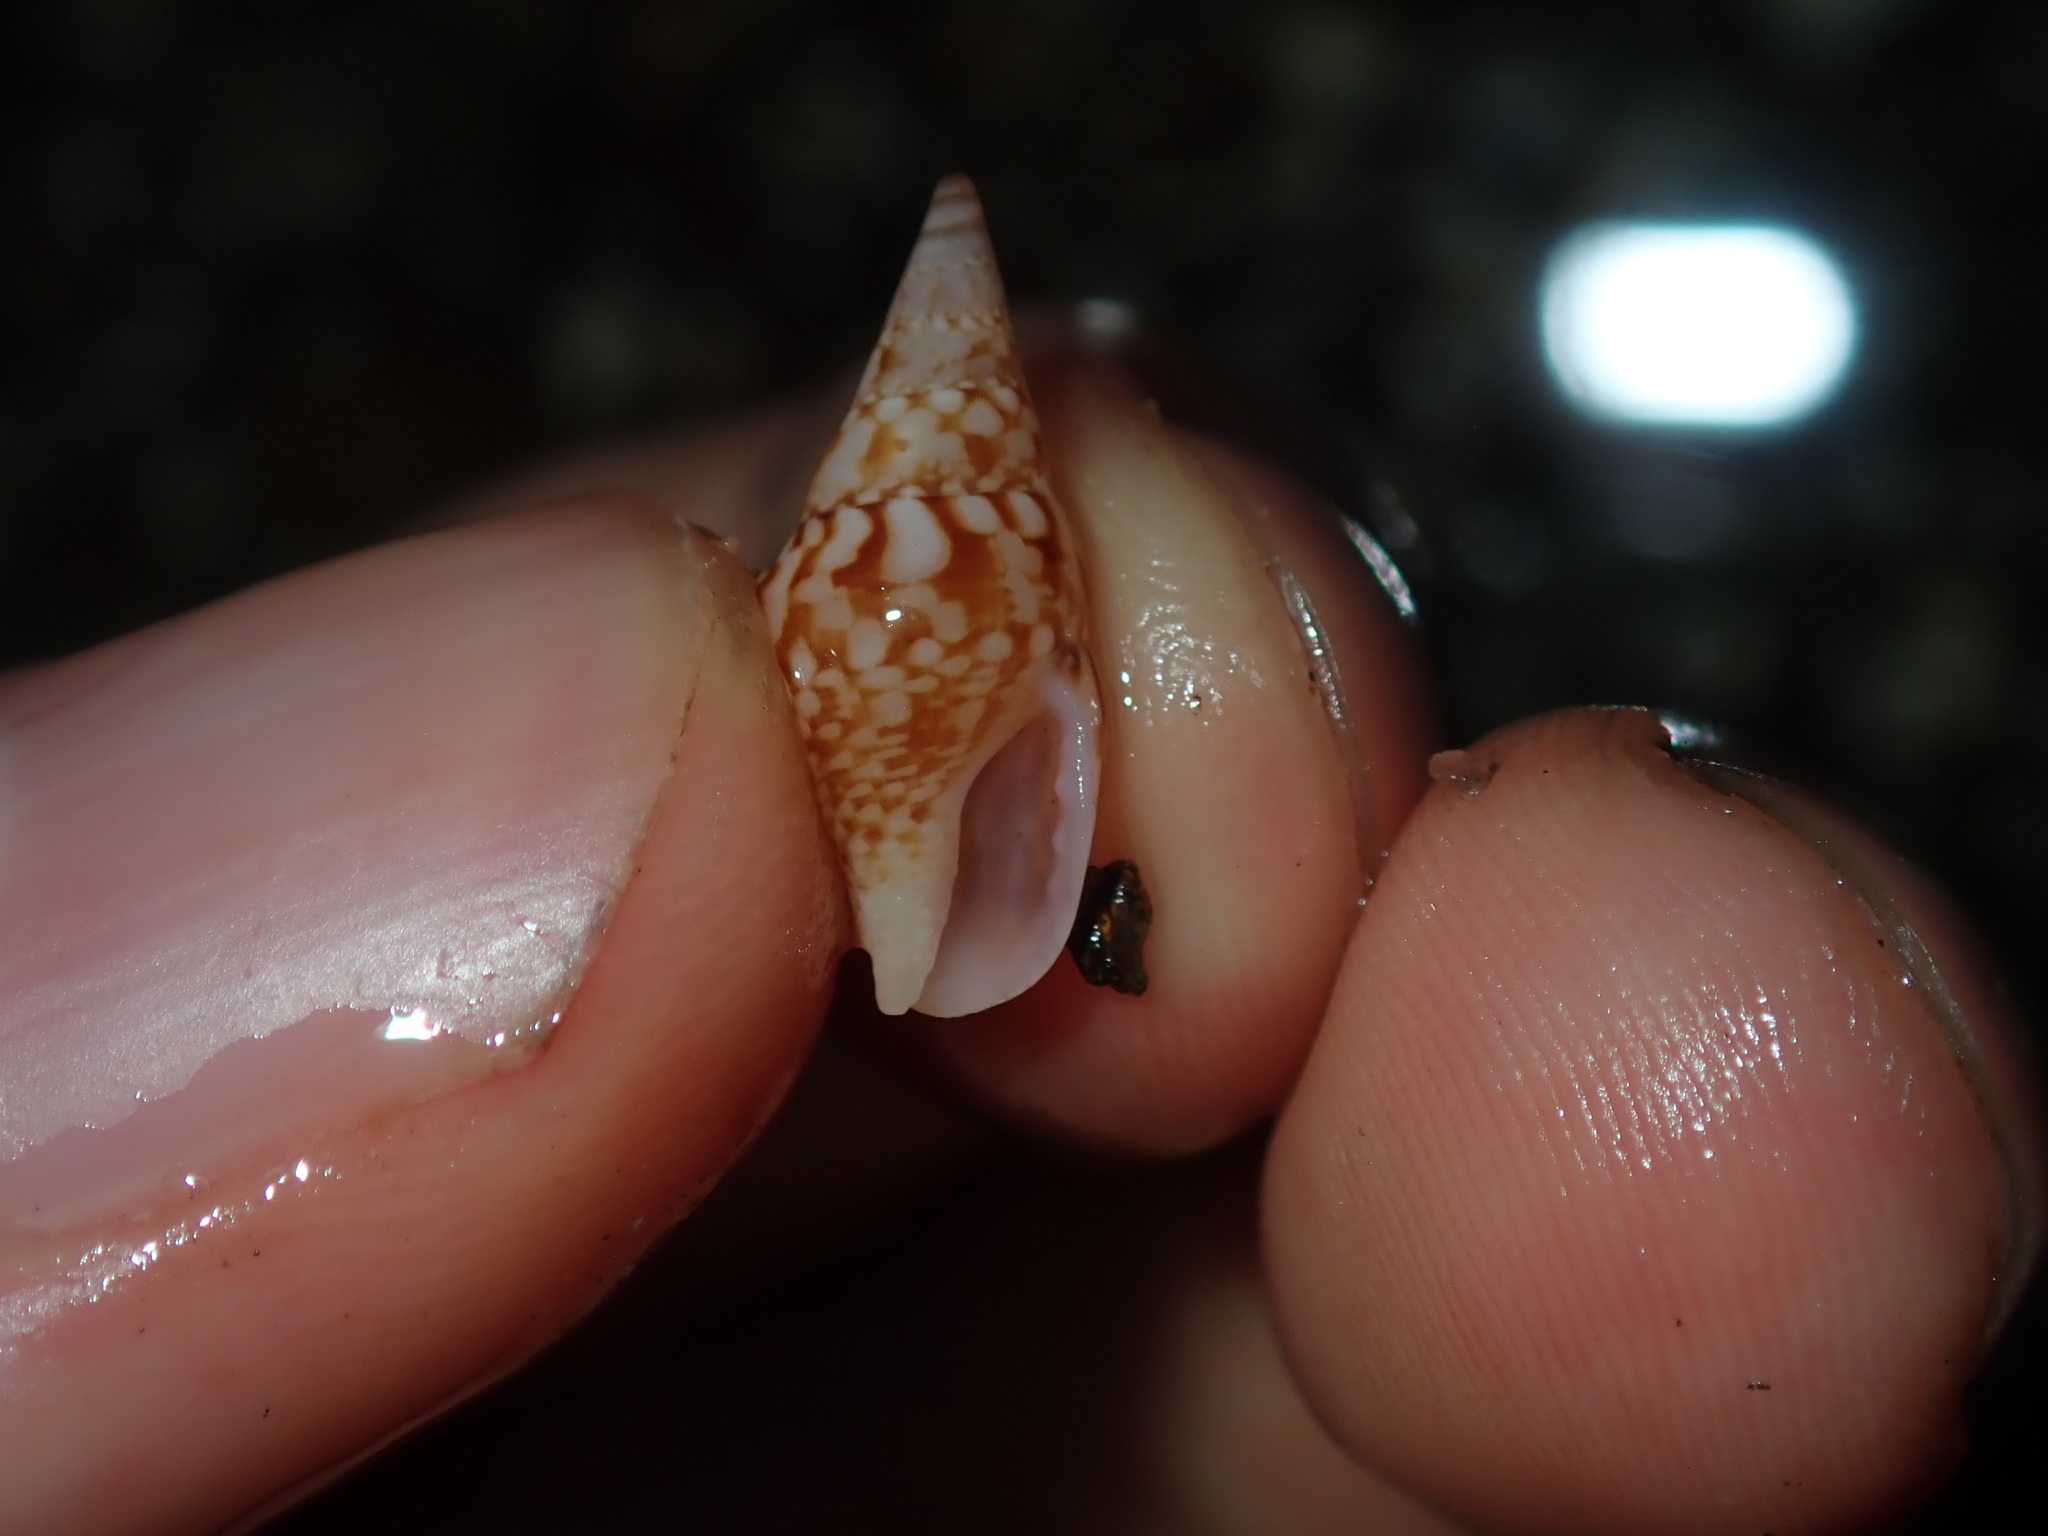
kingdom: Animalia
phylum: Mollusca
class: Gastropoda
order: Neogastropoda
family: Columbellidae
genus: Mitrella
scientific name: Mitrella semiconvexa
